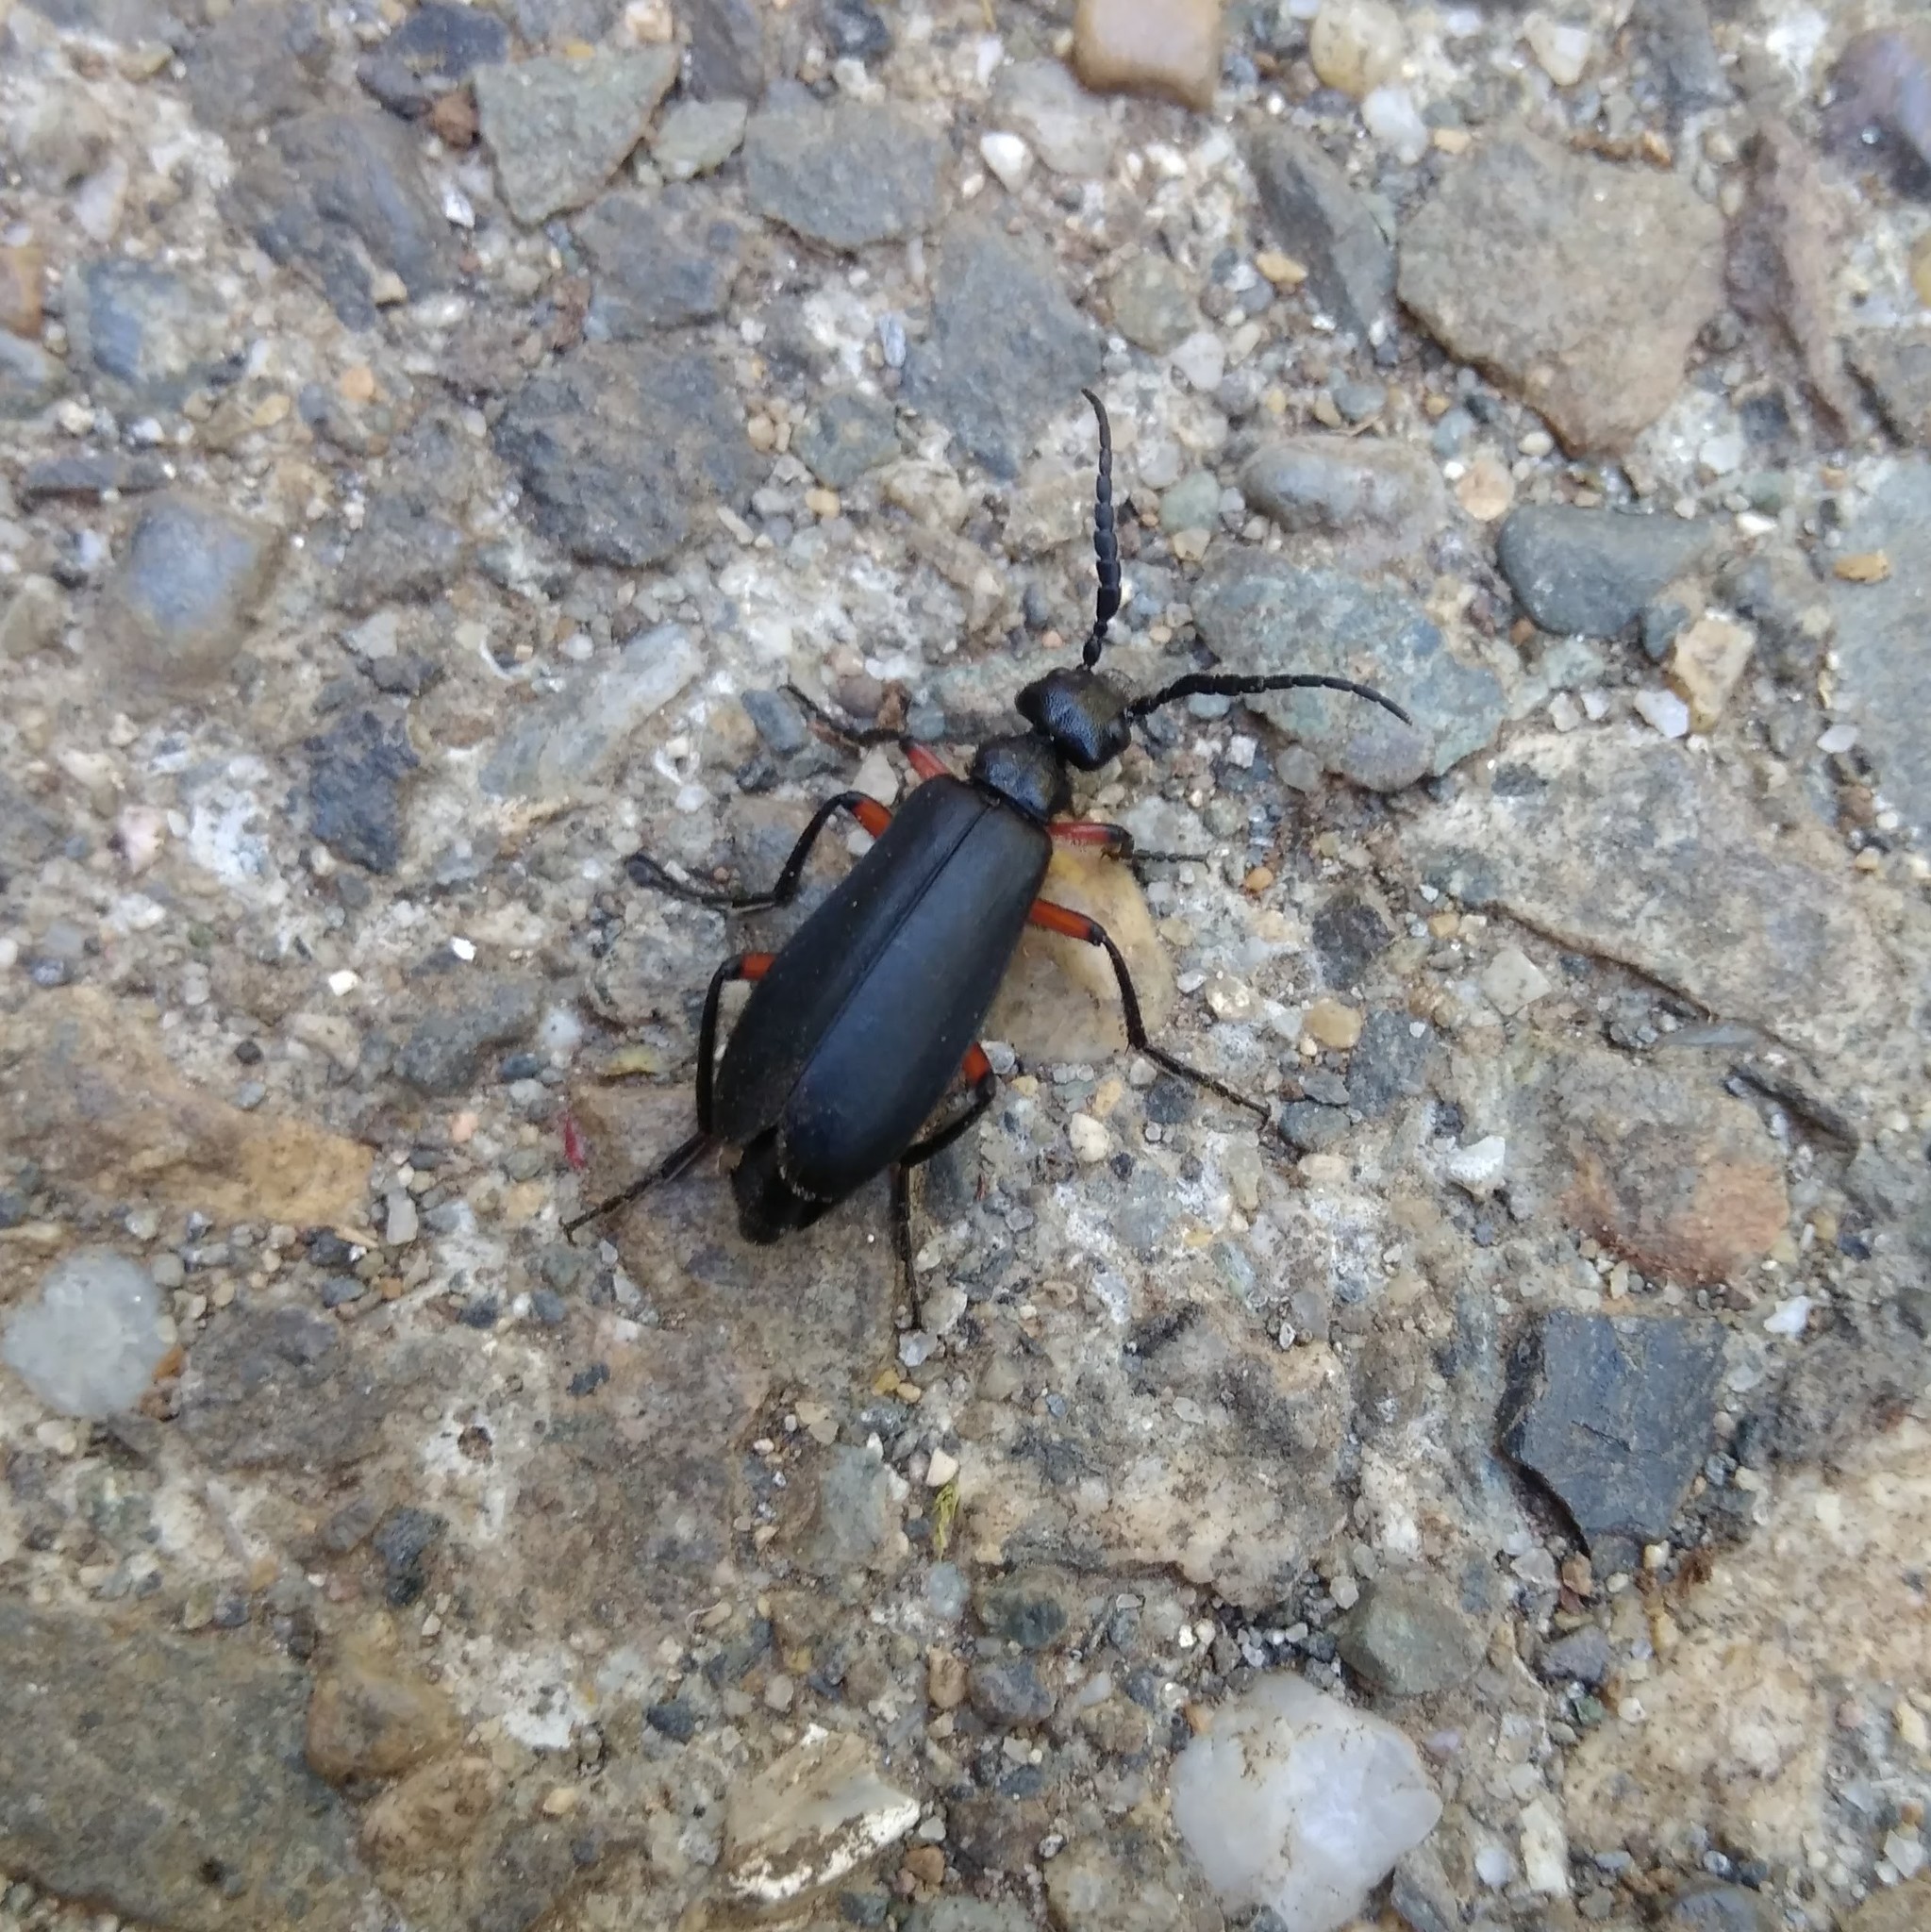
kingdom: Animalia
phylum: Arthropoda
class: Insecta
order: Coleoptera
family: Meloidae
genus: Epicauta
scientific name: Epicauta
